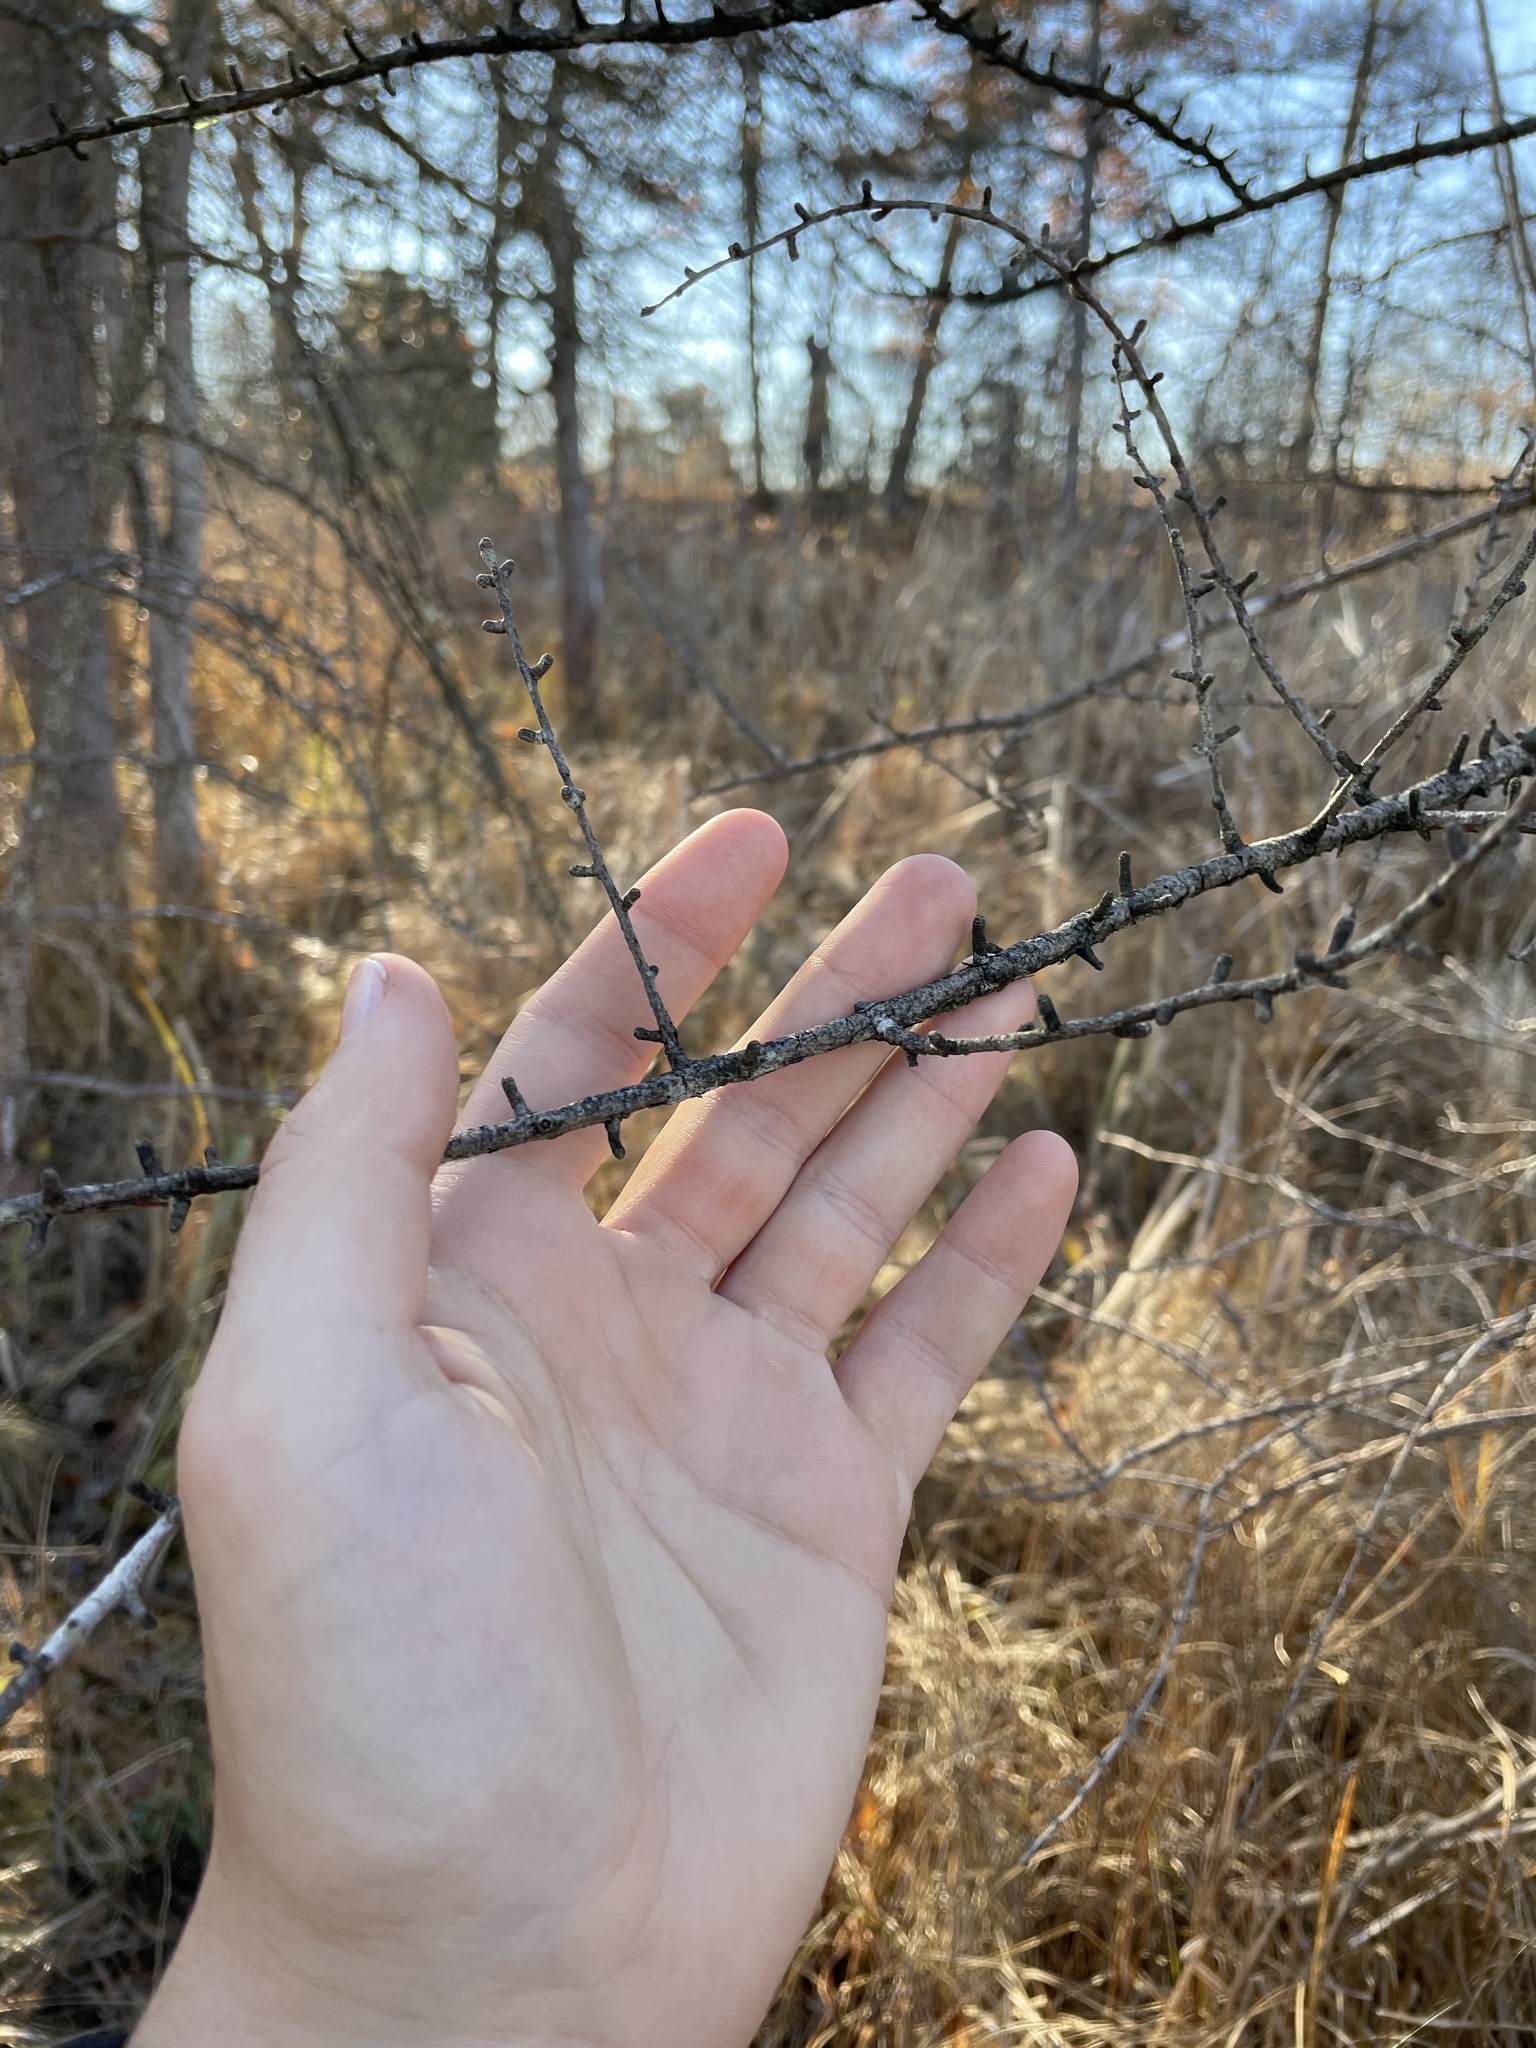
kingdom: Plantae
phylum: Tracheophyta
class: Pinopsida
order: Pinales
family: Pinaceae
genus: Larix
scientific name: Larix laricina
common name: American larch
